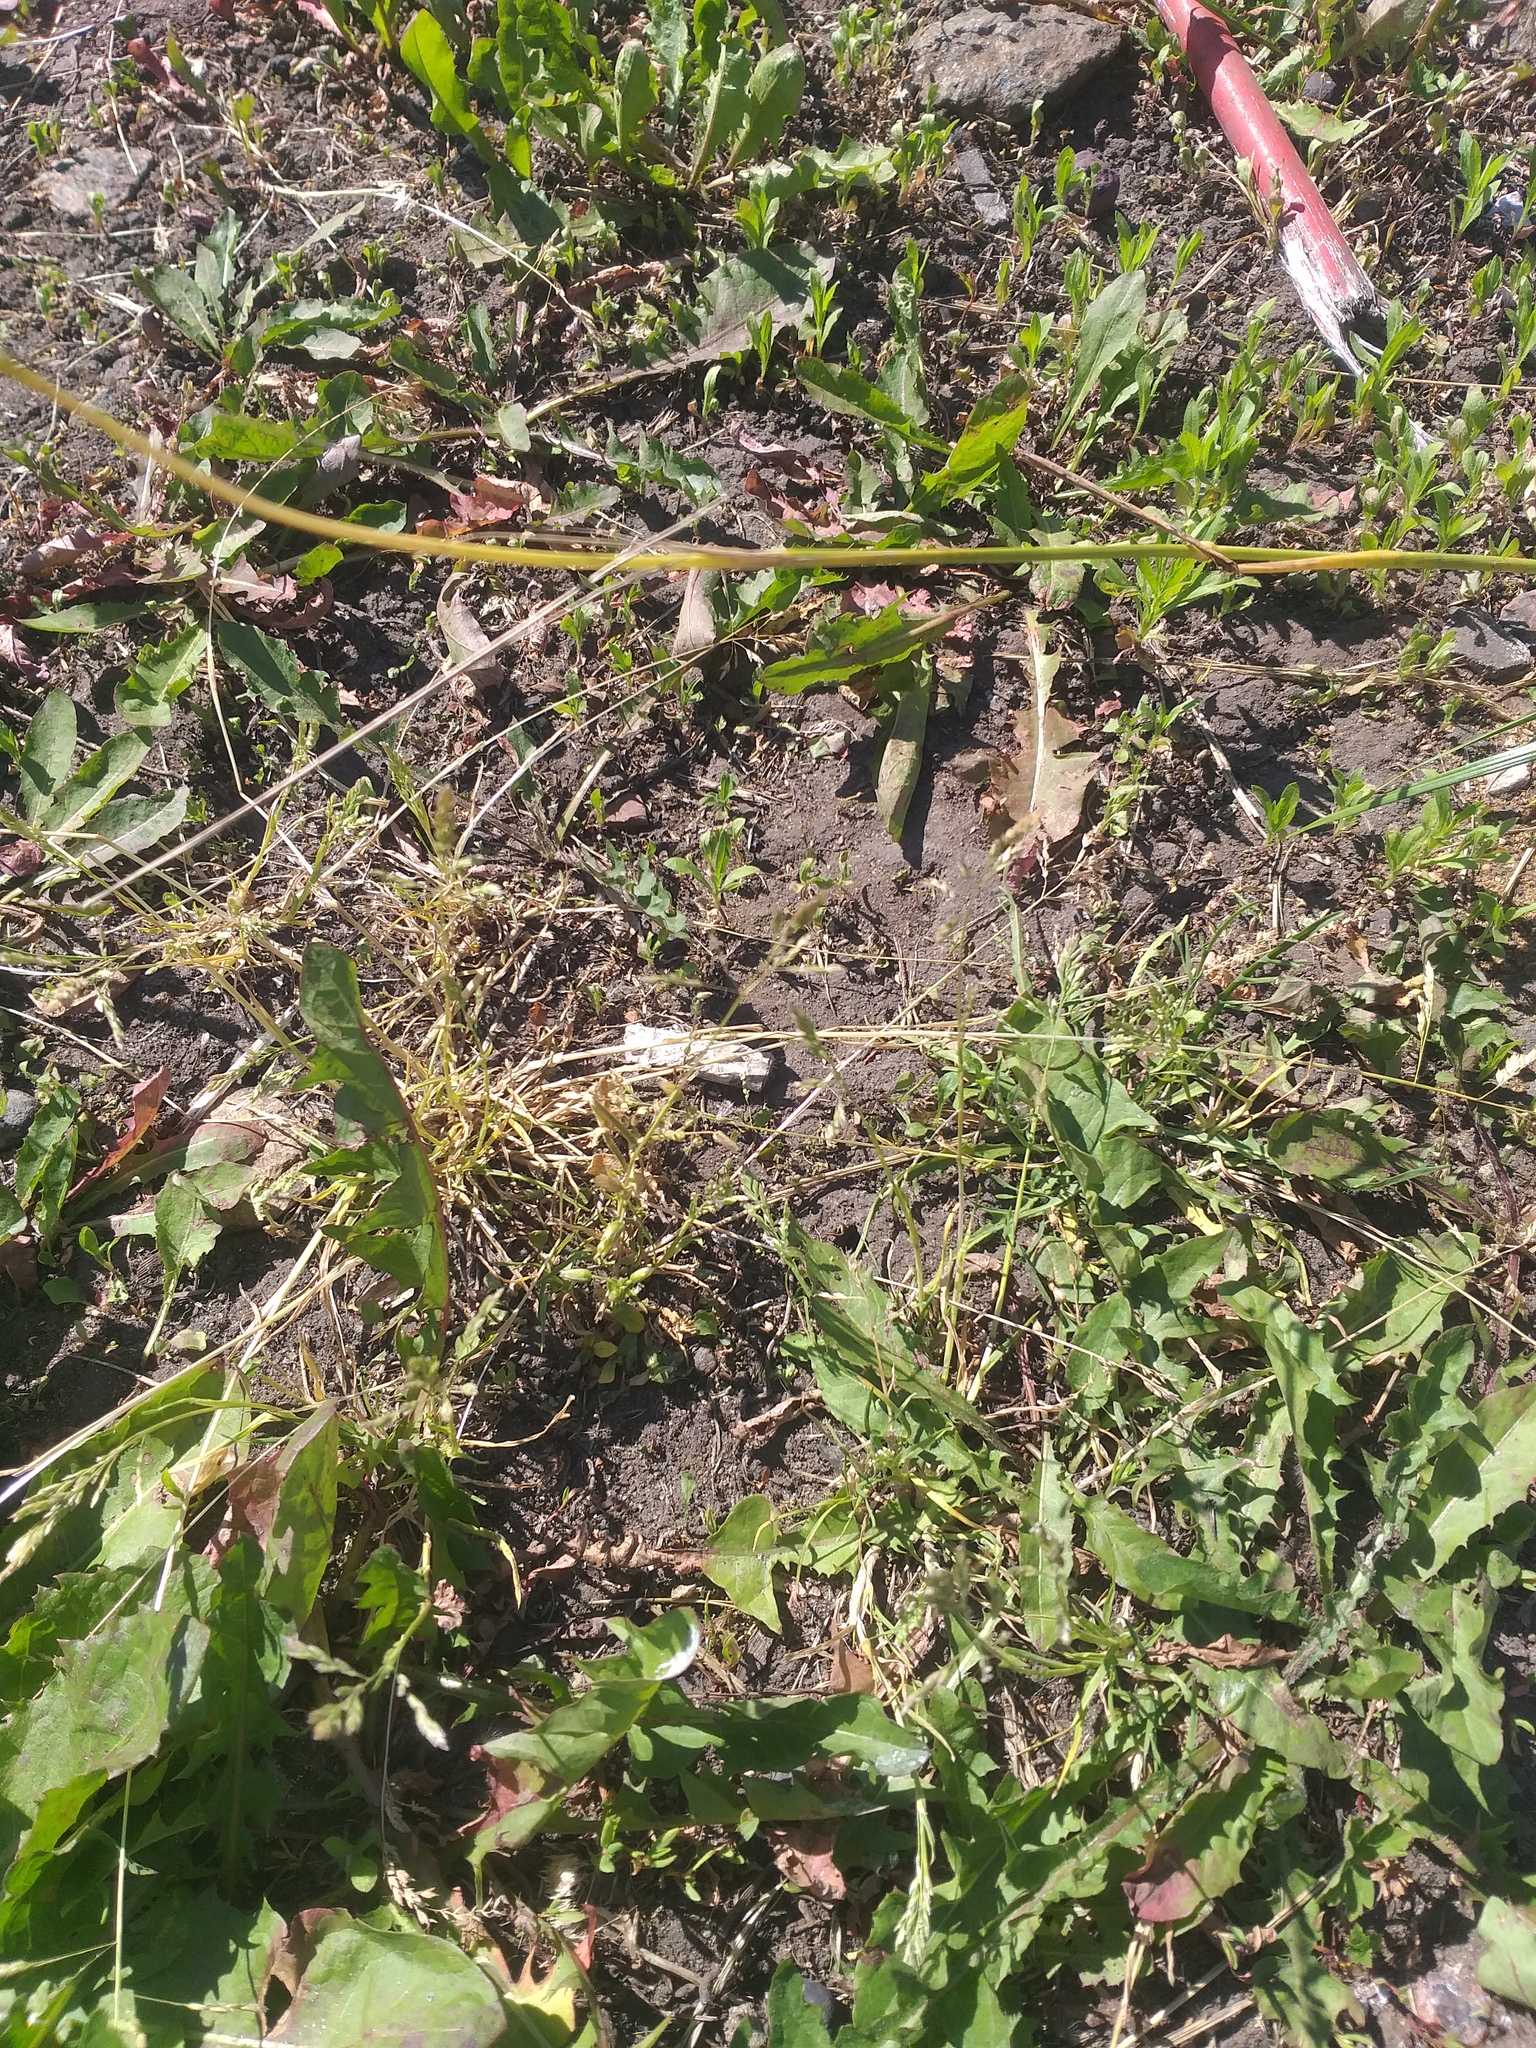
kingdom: Plantae
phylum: Tracheophyta
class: Liliopsida
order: Poales
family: Poaceae
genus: Poa
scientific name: Poa annua
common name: Annual bluegrass
